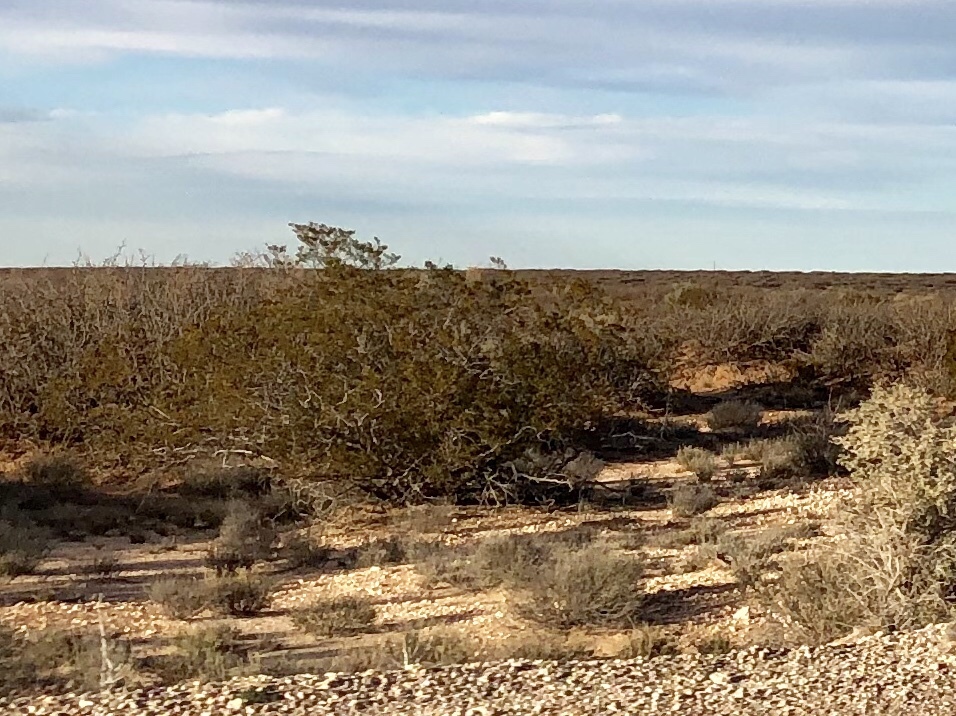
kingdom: Plantae
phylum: Tracheophyta
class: Magnoliopsida
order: Zygophyllales
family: Zygophyllaceae
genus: Larrea
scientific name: Larrea tridentata
